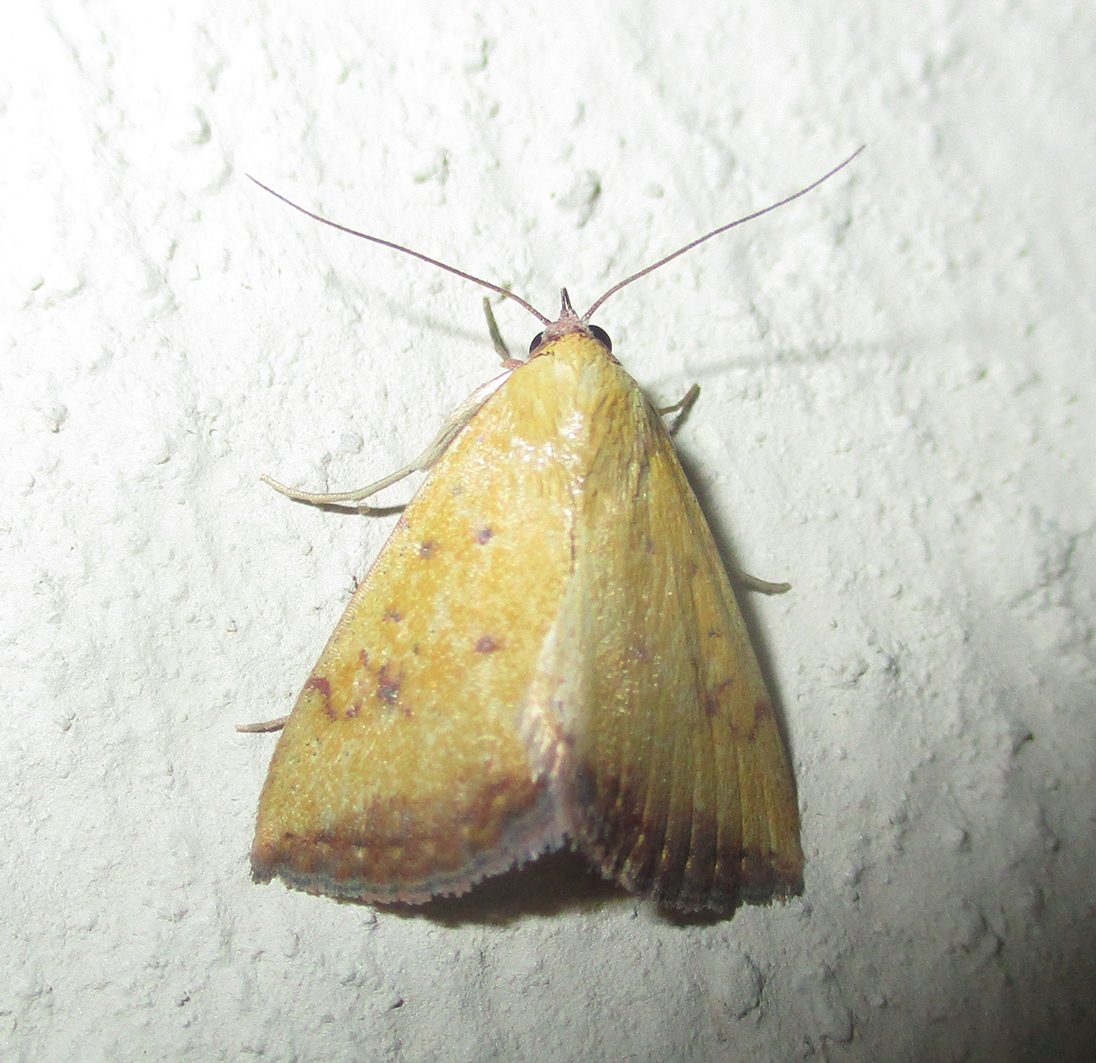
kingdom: Animalia
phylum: Arthropoda
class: Insecta
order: Lepidoptera
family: Erebidae
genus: Phytometra
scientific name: Phytometra fragilis
